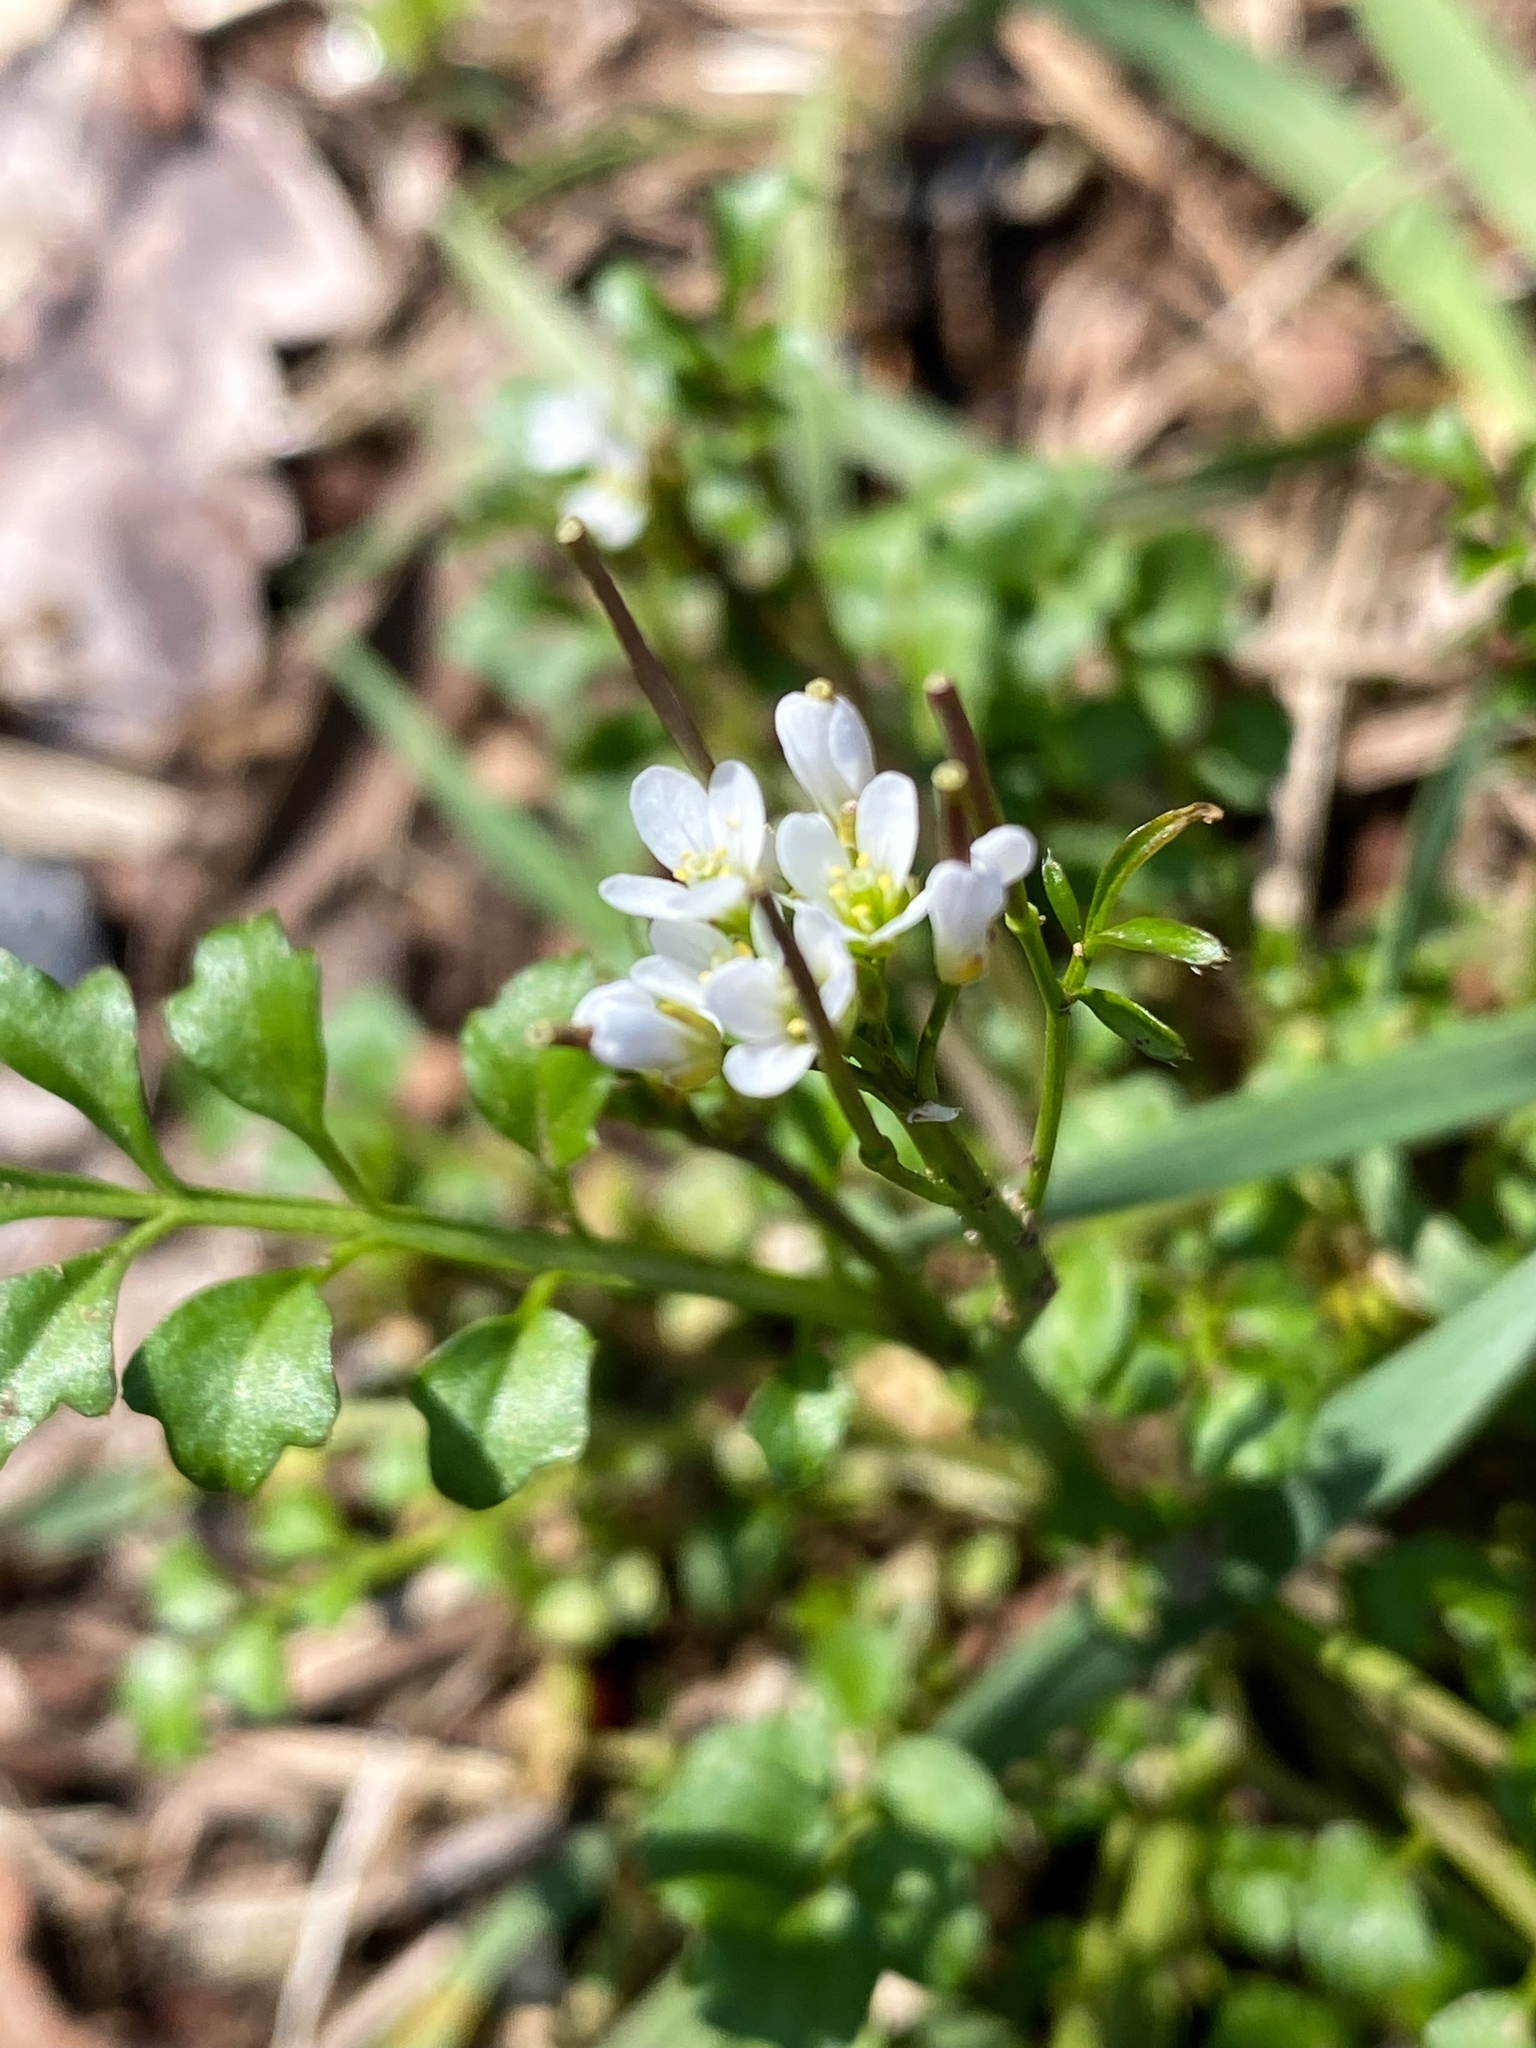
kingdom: Plantae
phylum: Tracheophyta
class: Magnoliopsida
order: Brassicales
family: Brassicaceae
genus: Cardamine
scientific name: Cardamine hirsuta
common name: Hairy bittercress
